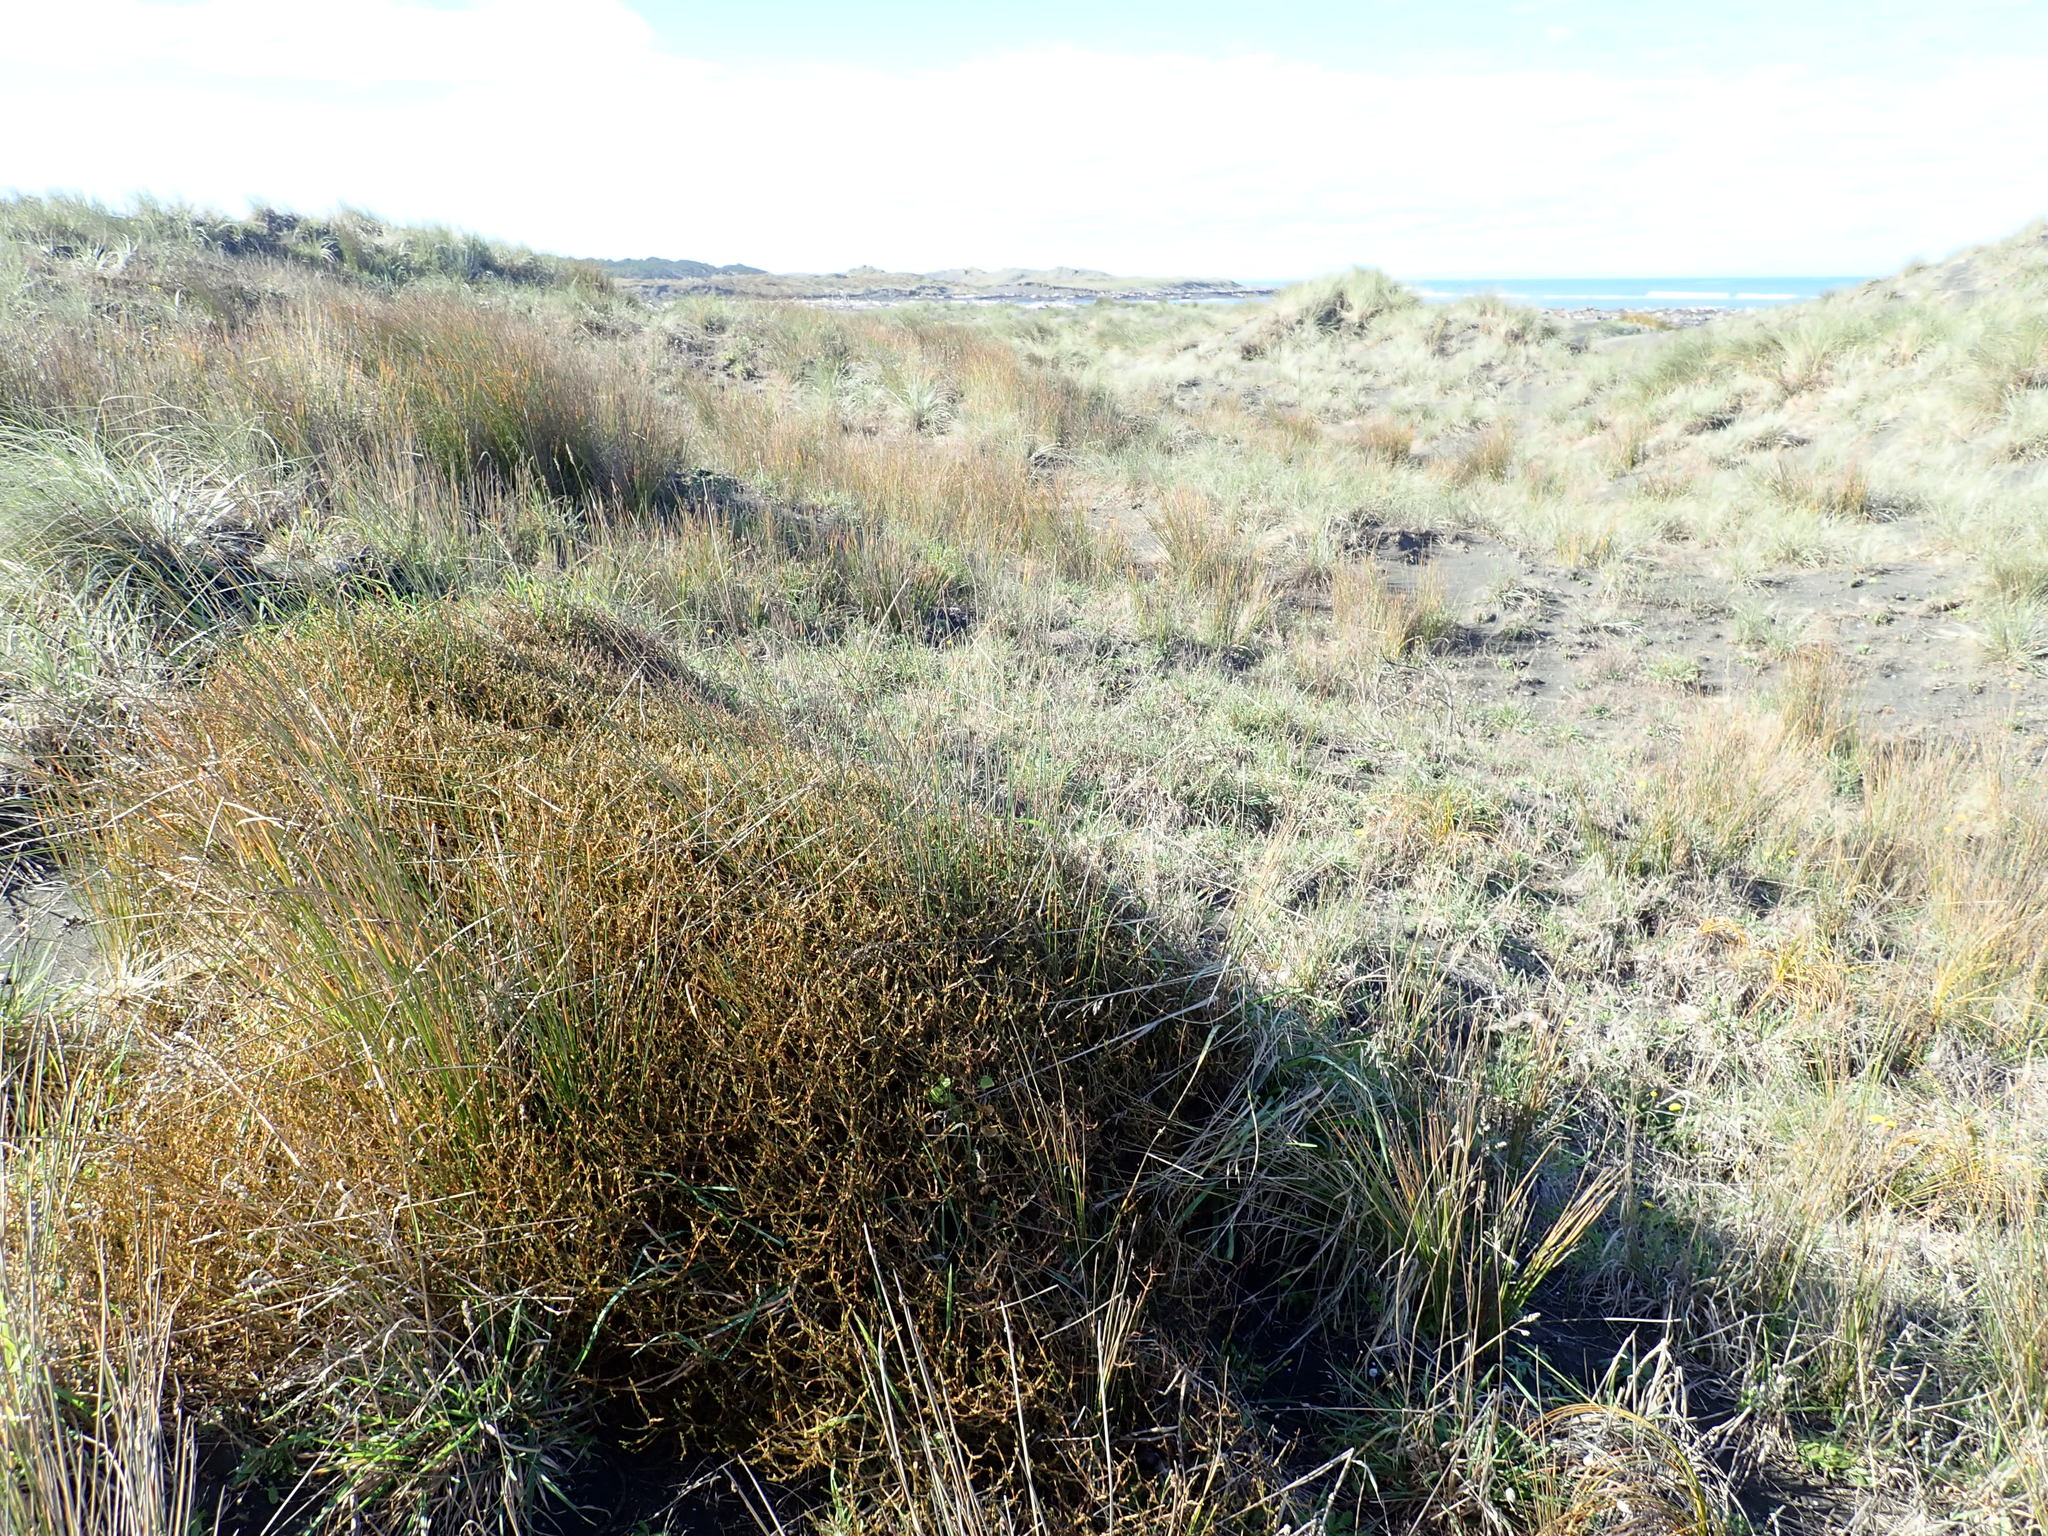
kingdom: Plantae
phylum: Tracheophyta
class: Magnoliopsida
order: Gentianales
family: Rubiaceae
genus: Coprosma
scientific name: Coprosma acerosa
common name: Sand coprosma
